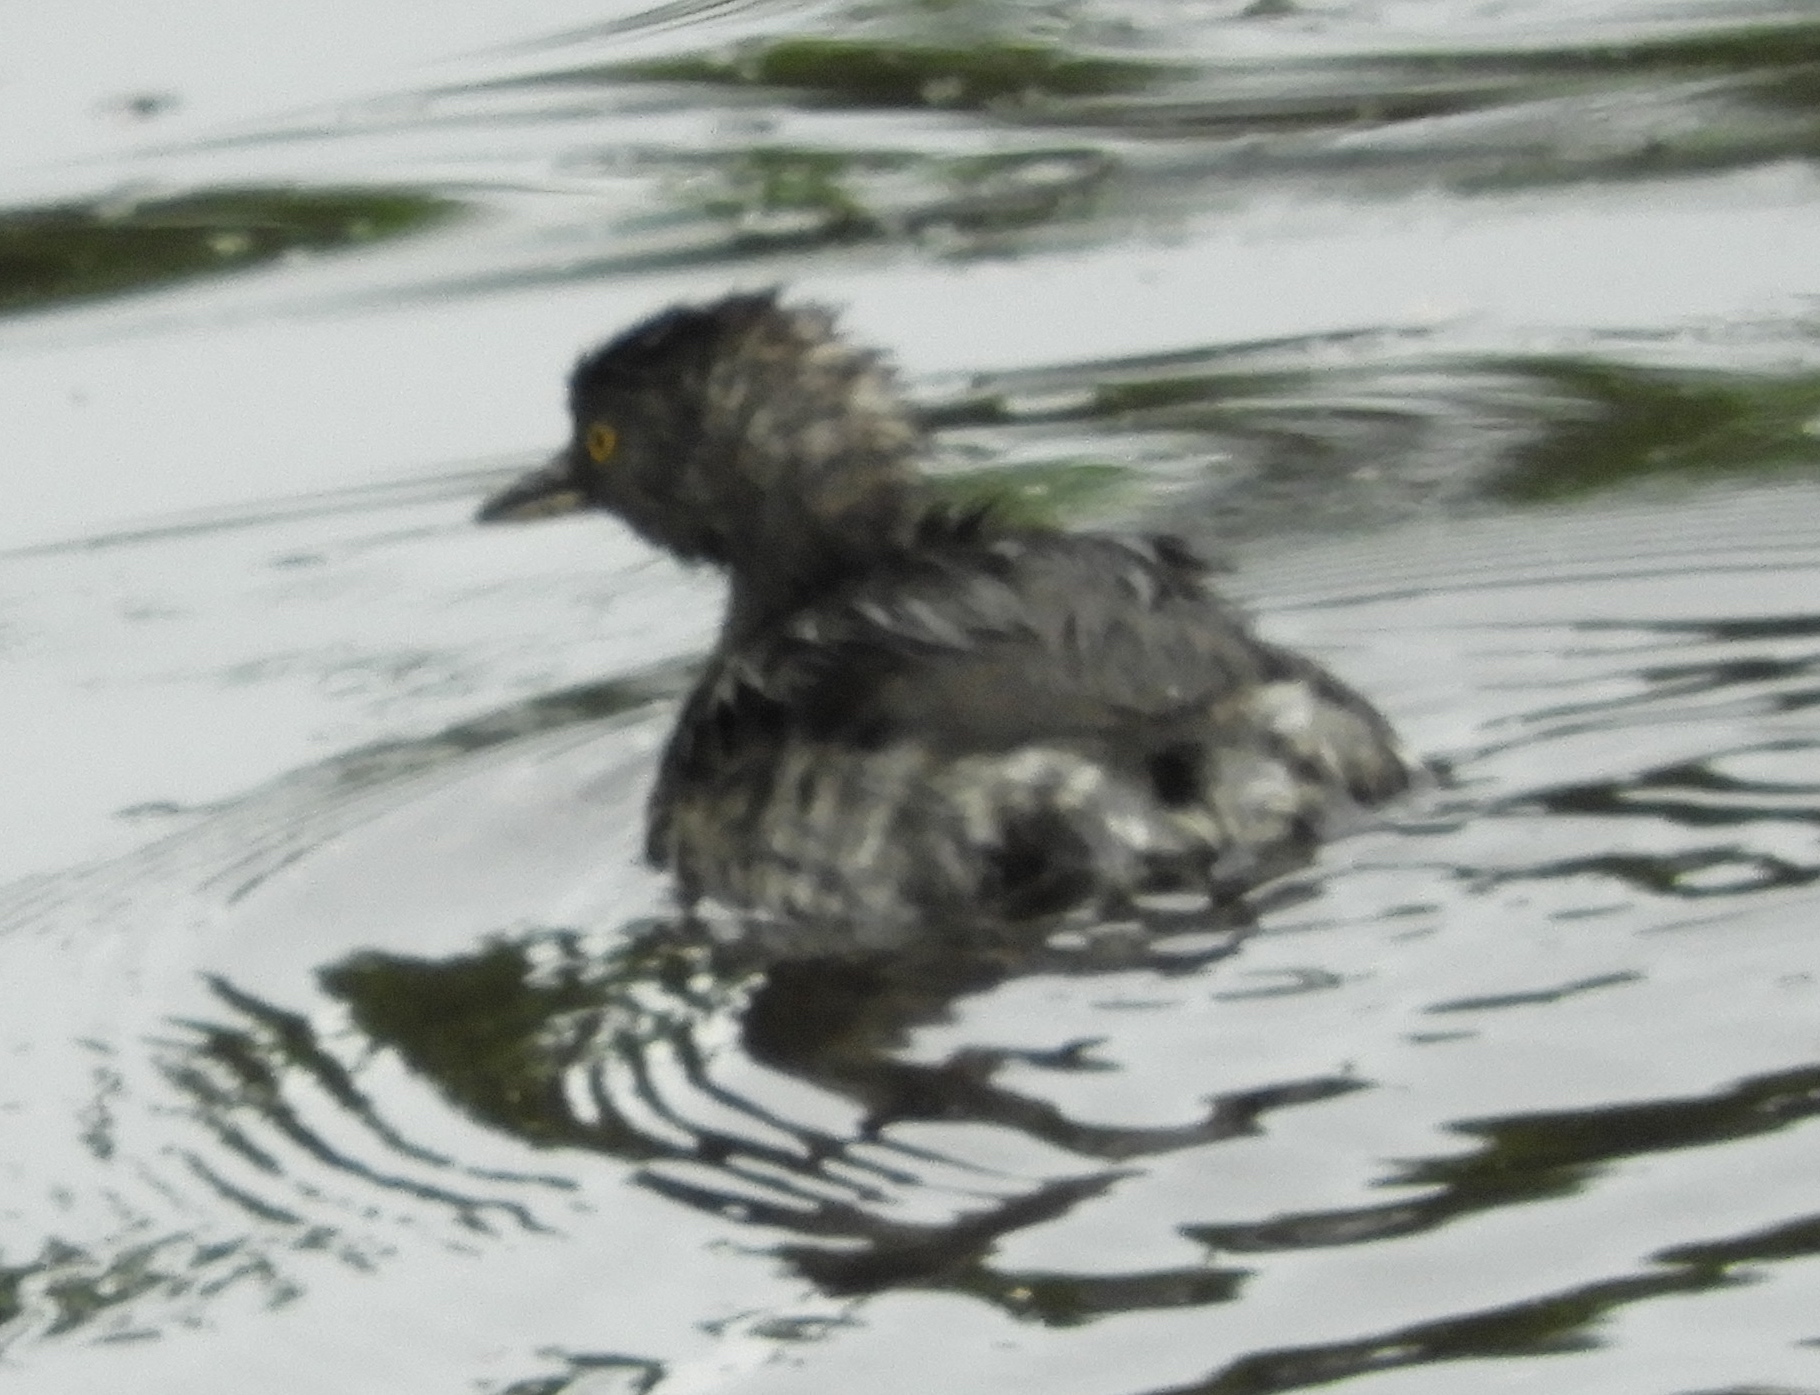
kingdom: Animalia
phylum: Chordata
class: Aves
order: Podicipediformes
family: Podicipedidae
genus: Tachybaptus
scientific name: Tachybaptus dominicus
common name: Least grebe
